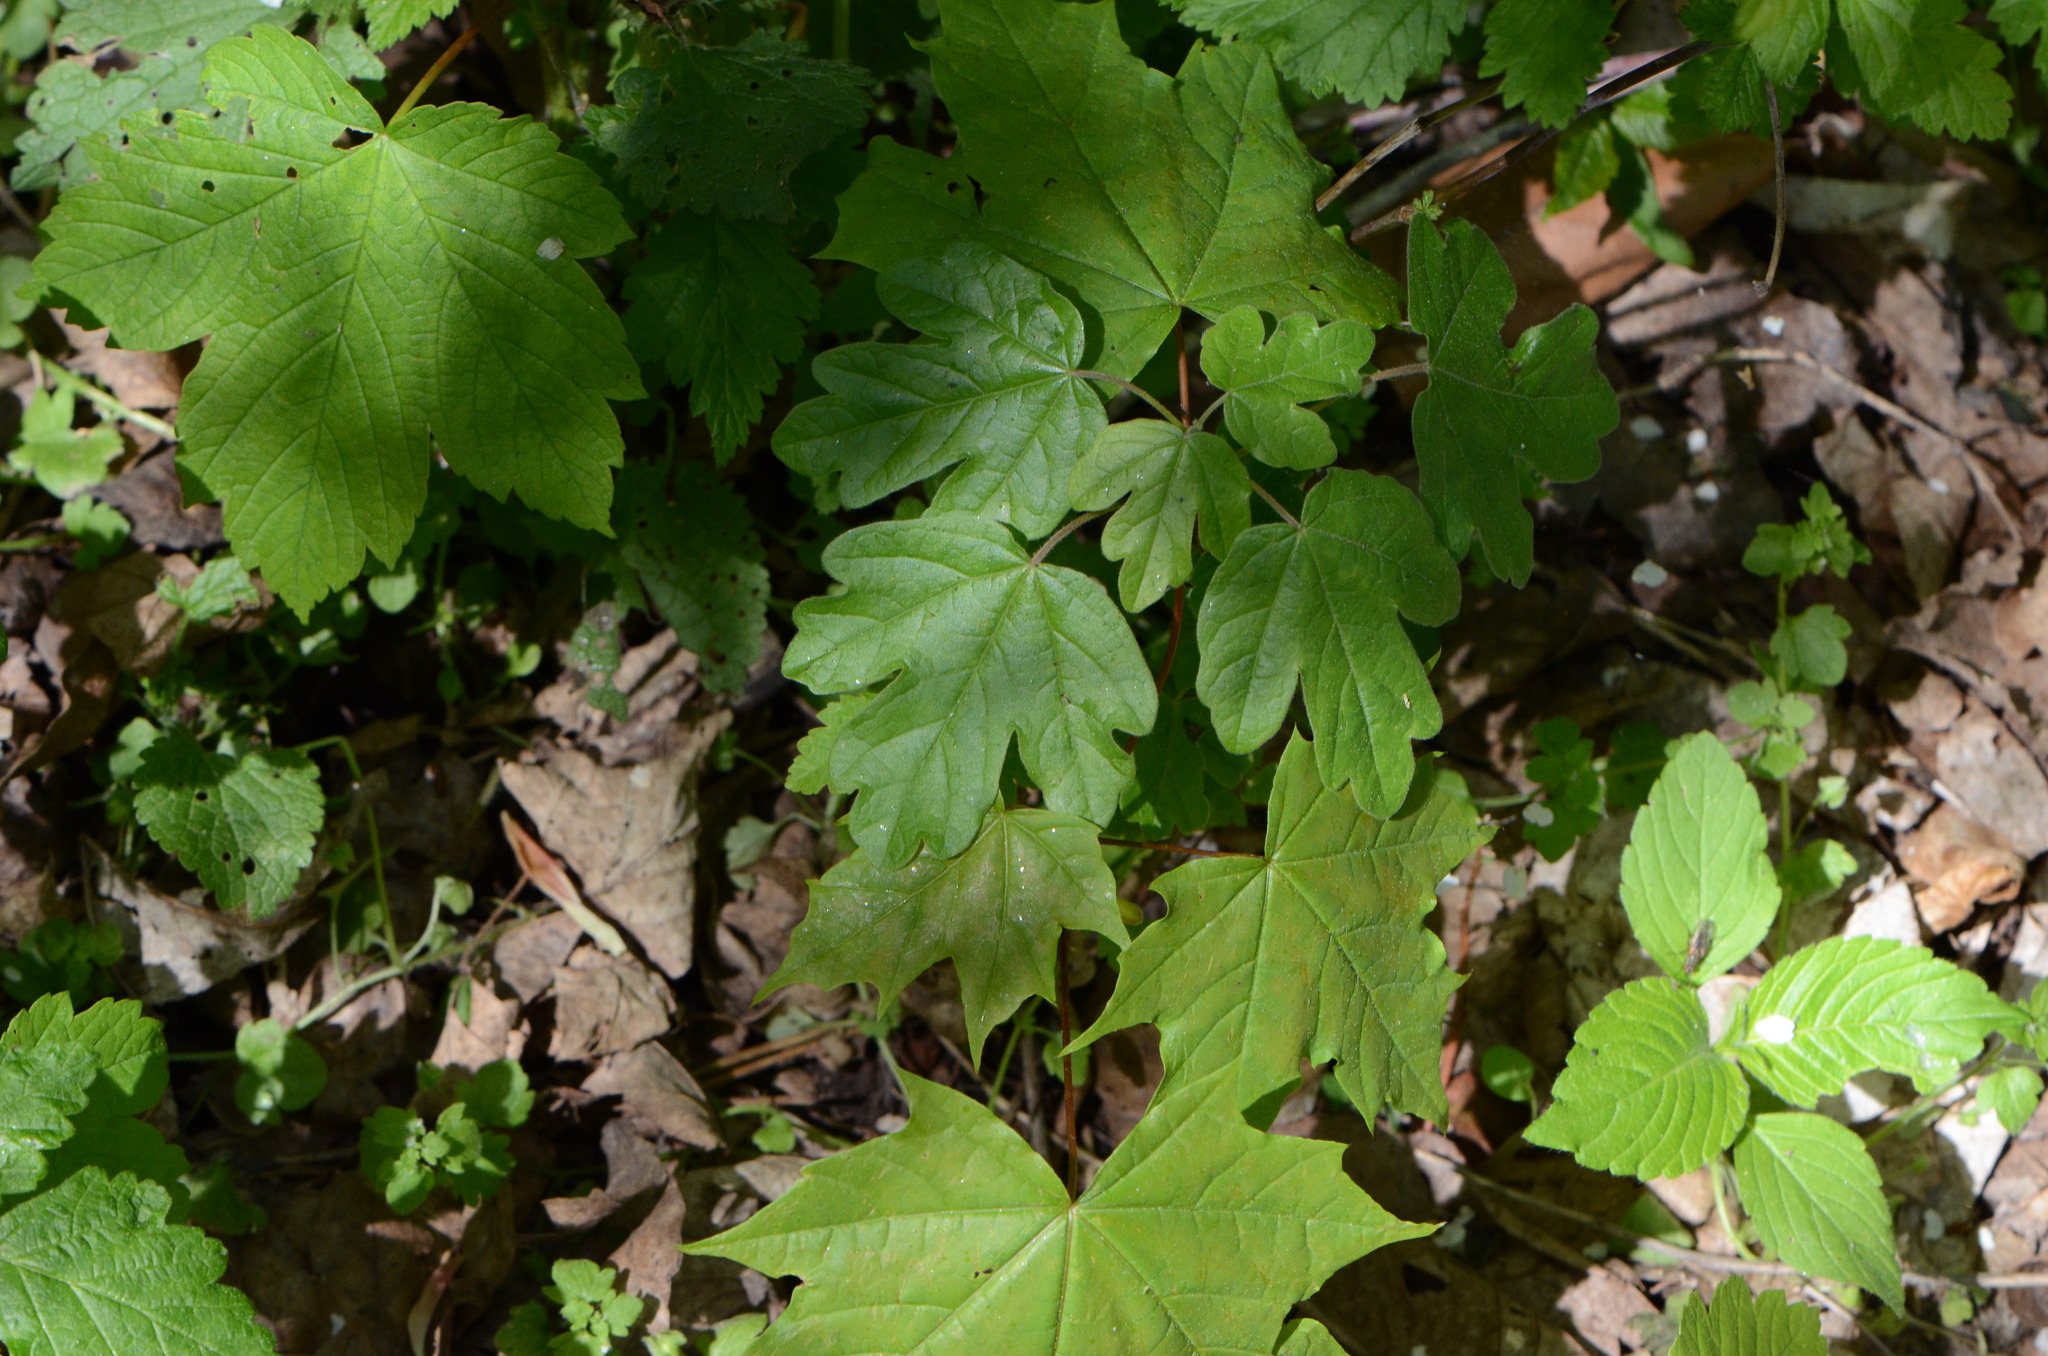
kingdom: Plantae
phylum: Tracheophyta
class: Magnoliopsida
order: Sapindales
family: Sapindaceae
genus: Acer
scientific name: Acer campestre
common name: Field maple
